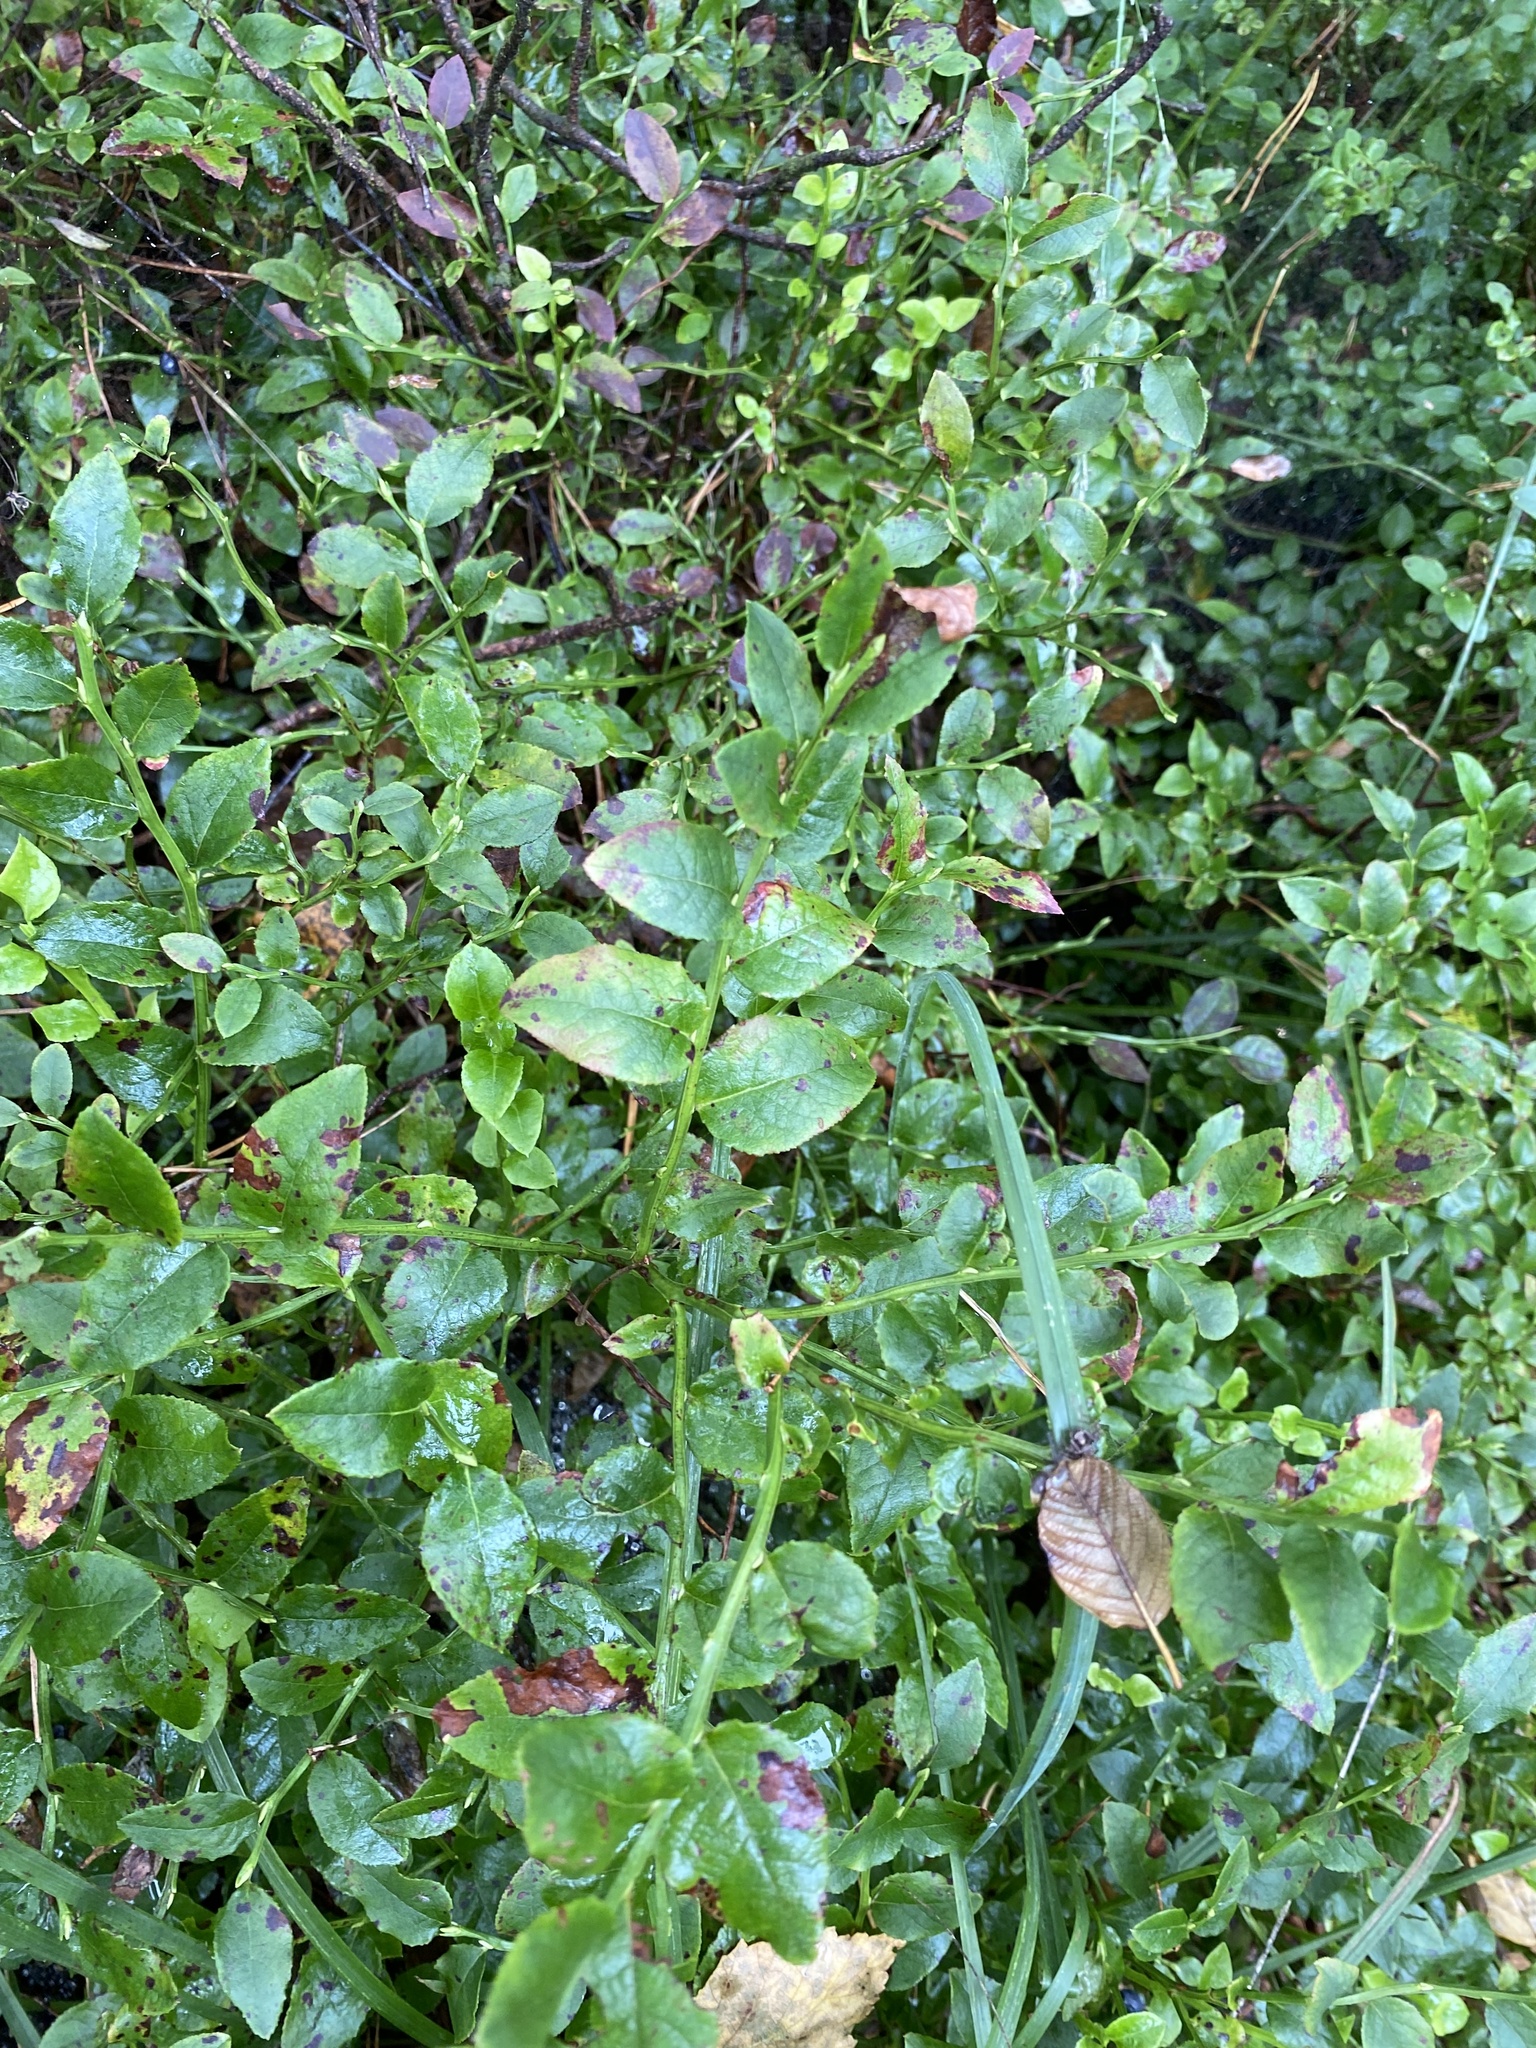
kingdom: Plantae
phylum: Tracheophyta
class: Magnoliopsida
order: Ericales
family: Ericaceae
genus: Vaccinium
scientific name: Vaccinium myrtillus
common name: Bilberry
